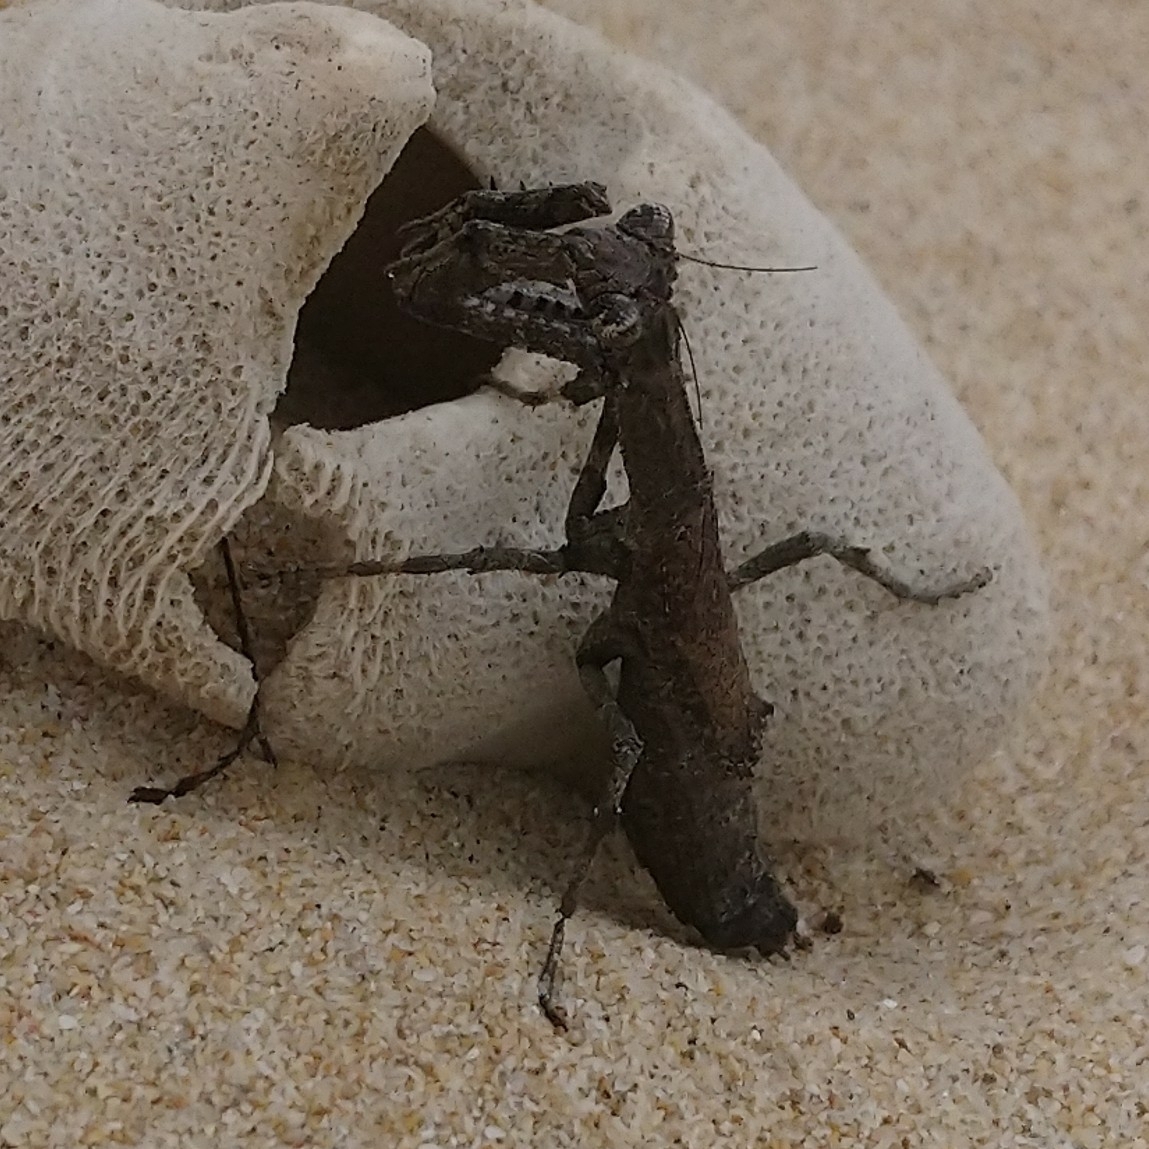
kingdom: Animalia
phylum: Arthropoda
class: Insecta
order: Mantodea
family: Deroplatyidae
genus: Popa
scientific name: Popa spurca
